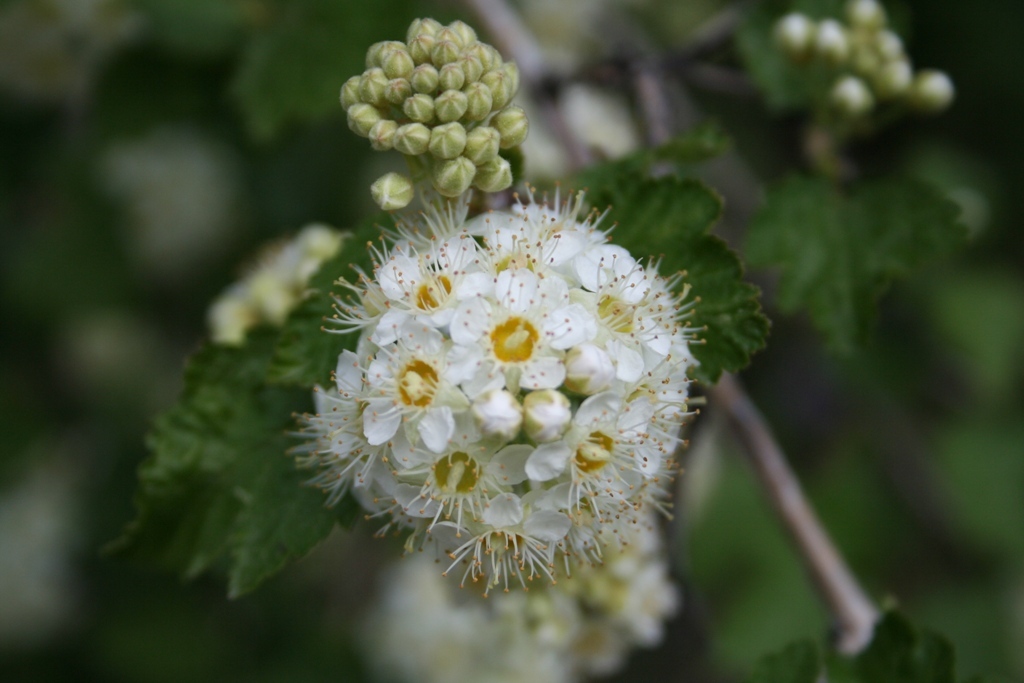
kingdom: Plantae
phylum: Tracheophyta
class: Magnoliopsida
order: Rosales
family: Rosaceae
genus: Physocarpus
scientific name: Physocarpus malvaceus
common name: Mallow ninebark
